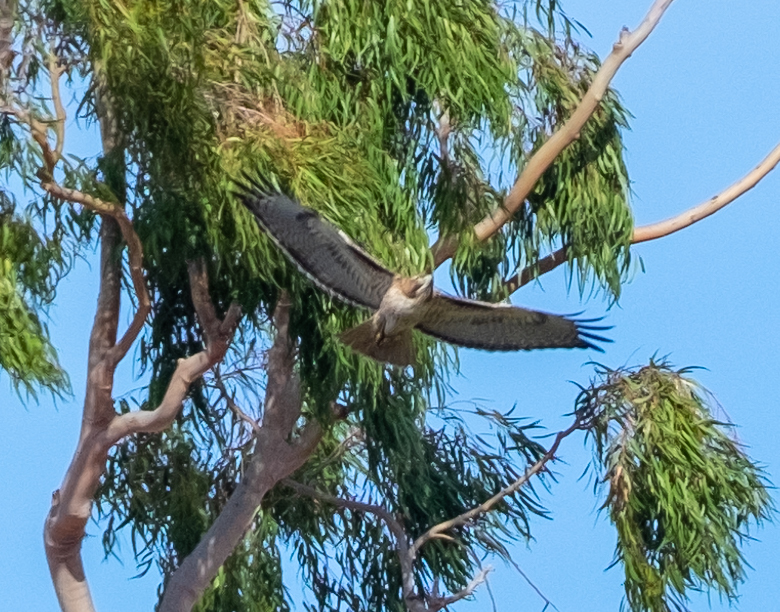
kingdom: Animalia
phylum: Chordata
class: Aves
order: Accipitriformes
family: Accipitridae
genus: Buteo
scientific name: Buteo jamaicensis
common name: Red-tailed hawk
